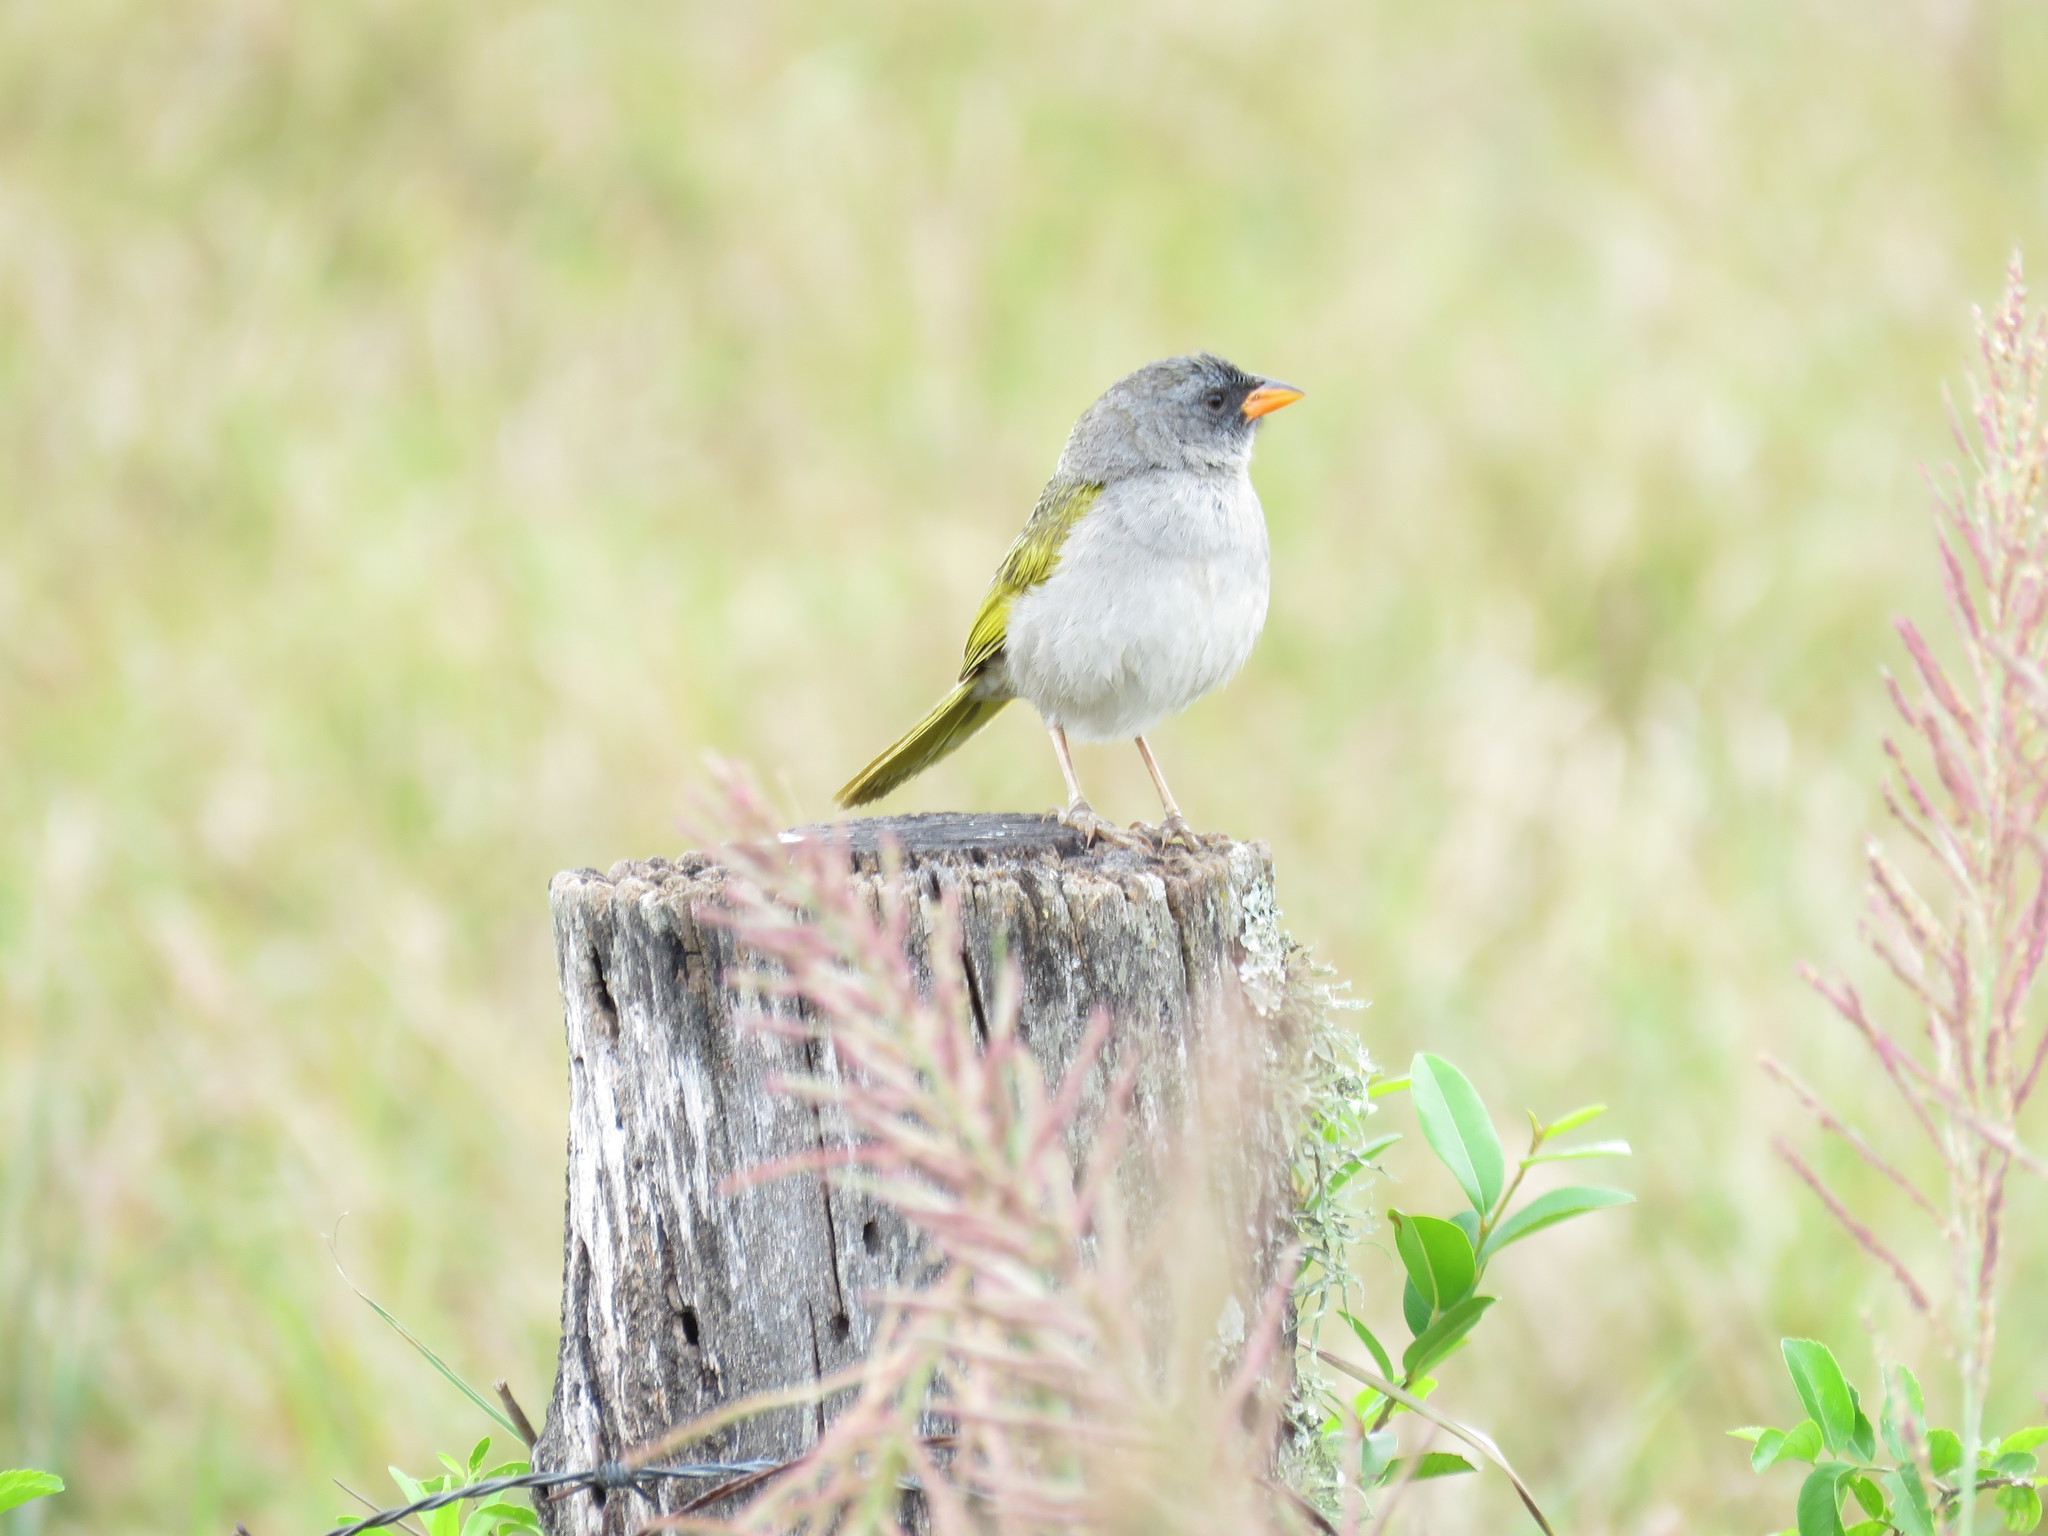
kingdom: Animalia
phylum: Chordata
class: Aves
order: Passeriformes
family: Thraupidae
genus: Embernagra
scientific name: Embernagra platensis
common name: Pampa finch
